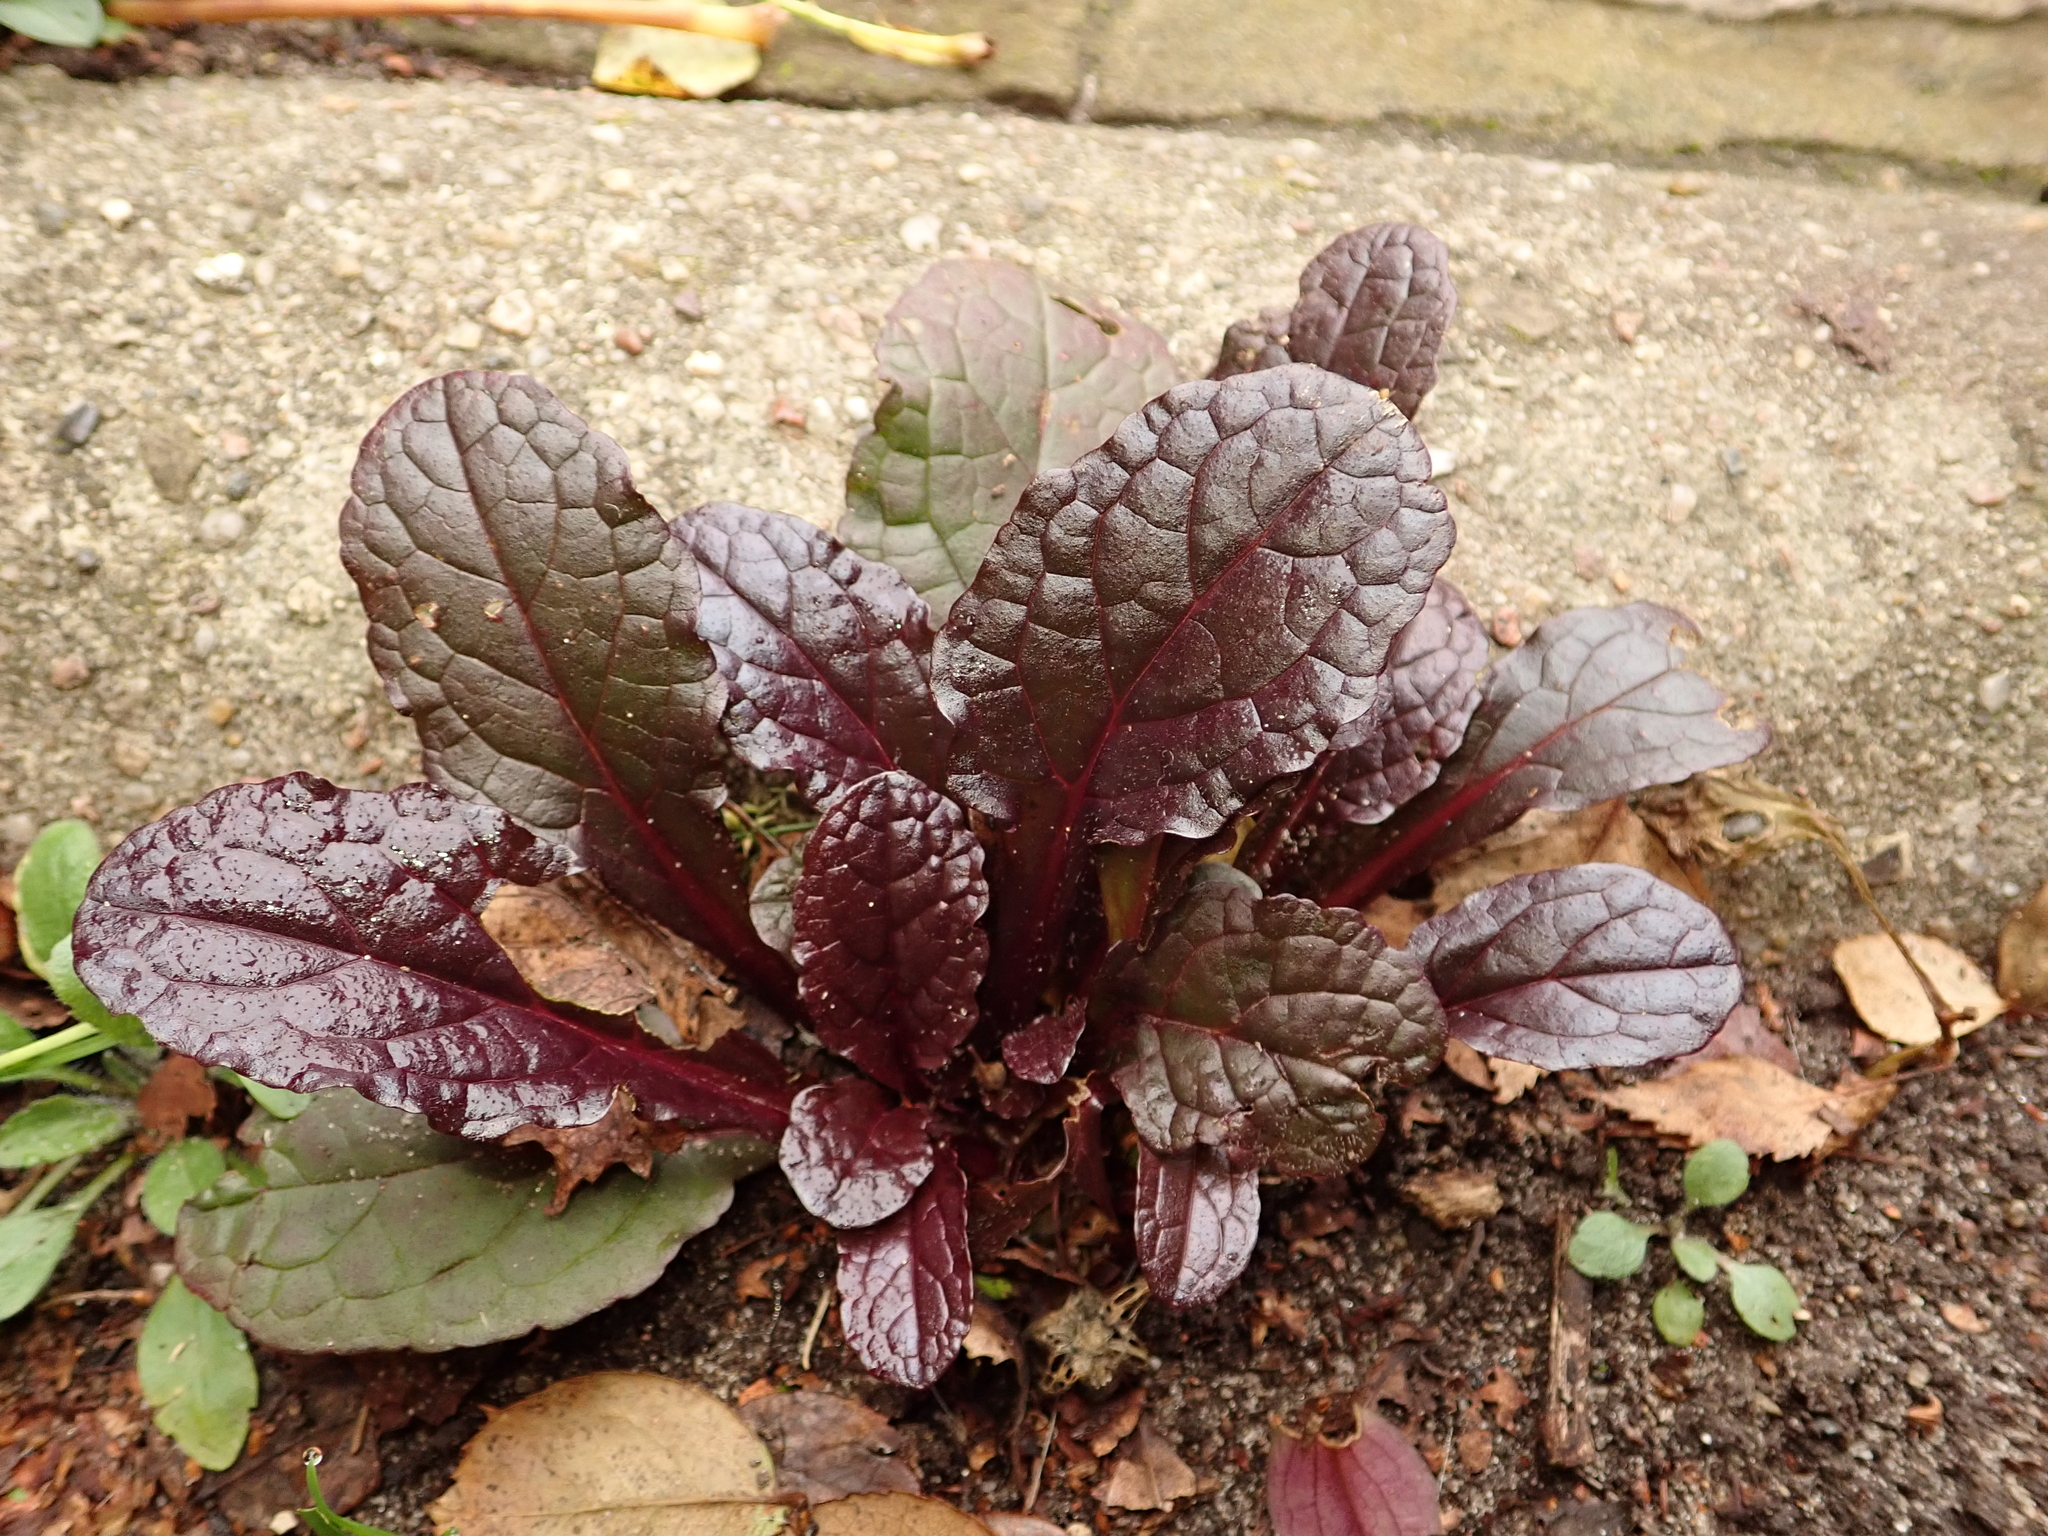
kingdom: Plantae
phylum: Tracheophyta
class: Magnoliopsida
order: Lamiales
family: Lamiaceae
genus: Ajuga
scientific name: Ajuga reptans
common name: Bugle
